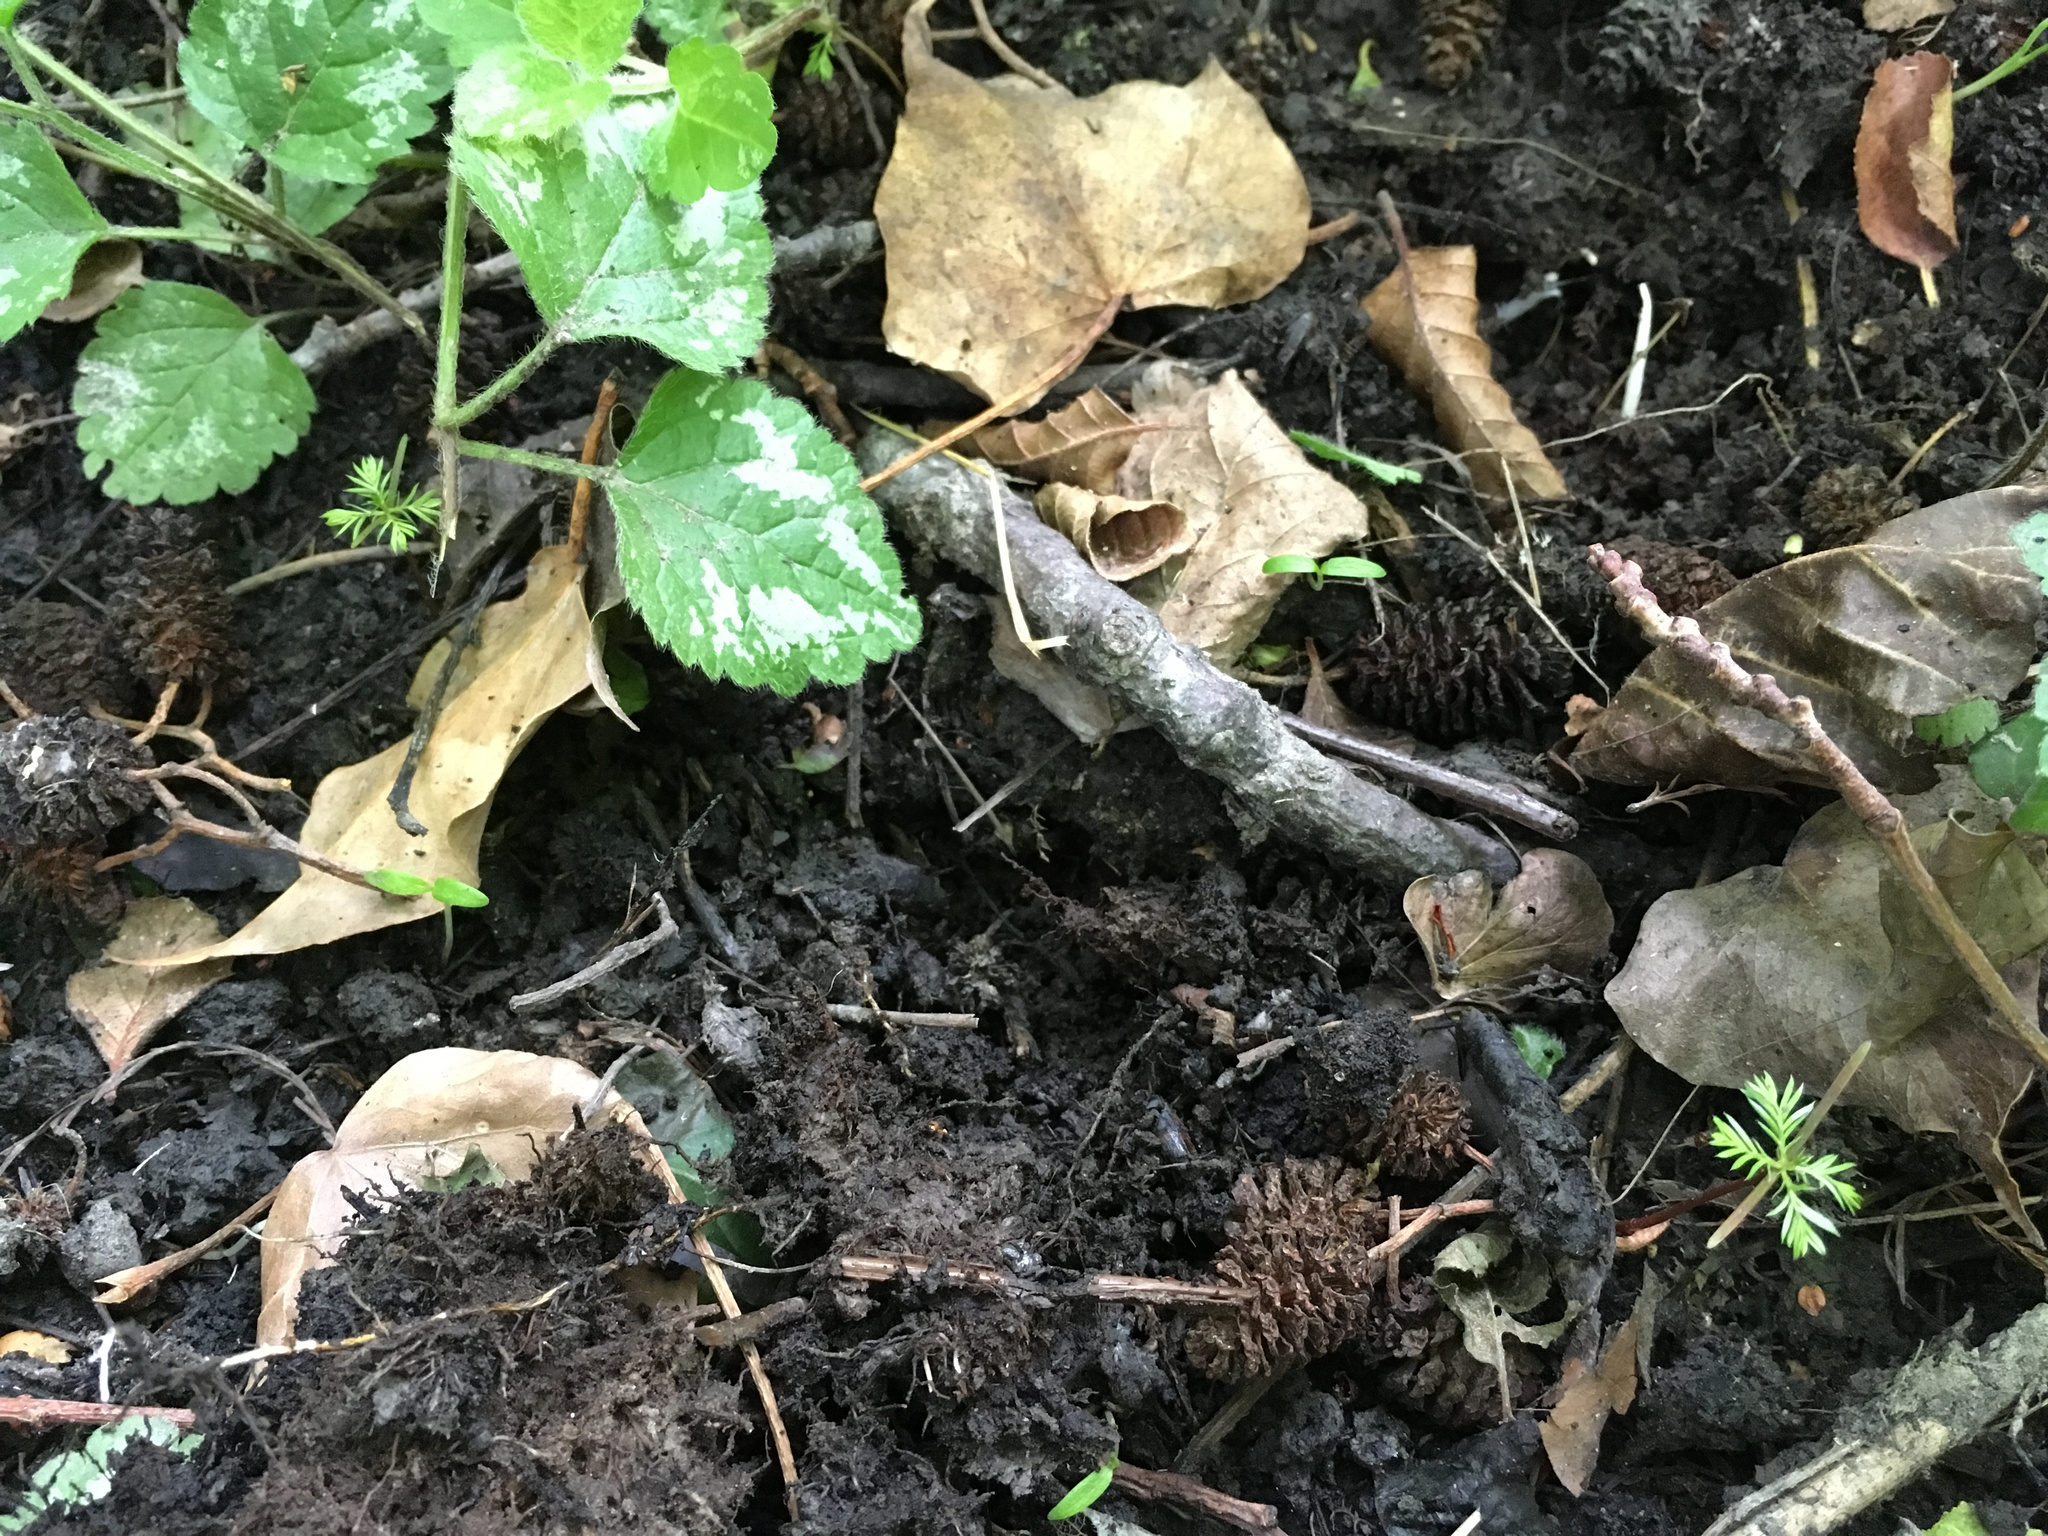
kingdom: Plantae
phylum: Tracheophyta
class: Pinopsida
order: Pinales
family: Podocarpaceae
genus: Dacrycarpus
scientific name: Dacrycarpus dacrydioides
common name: White pine
